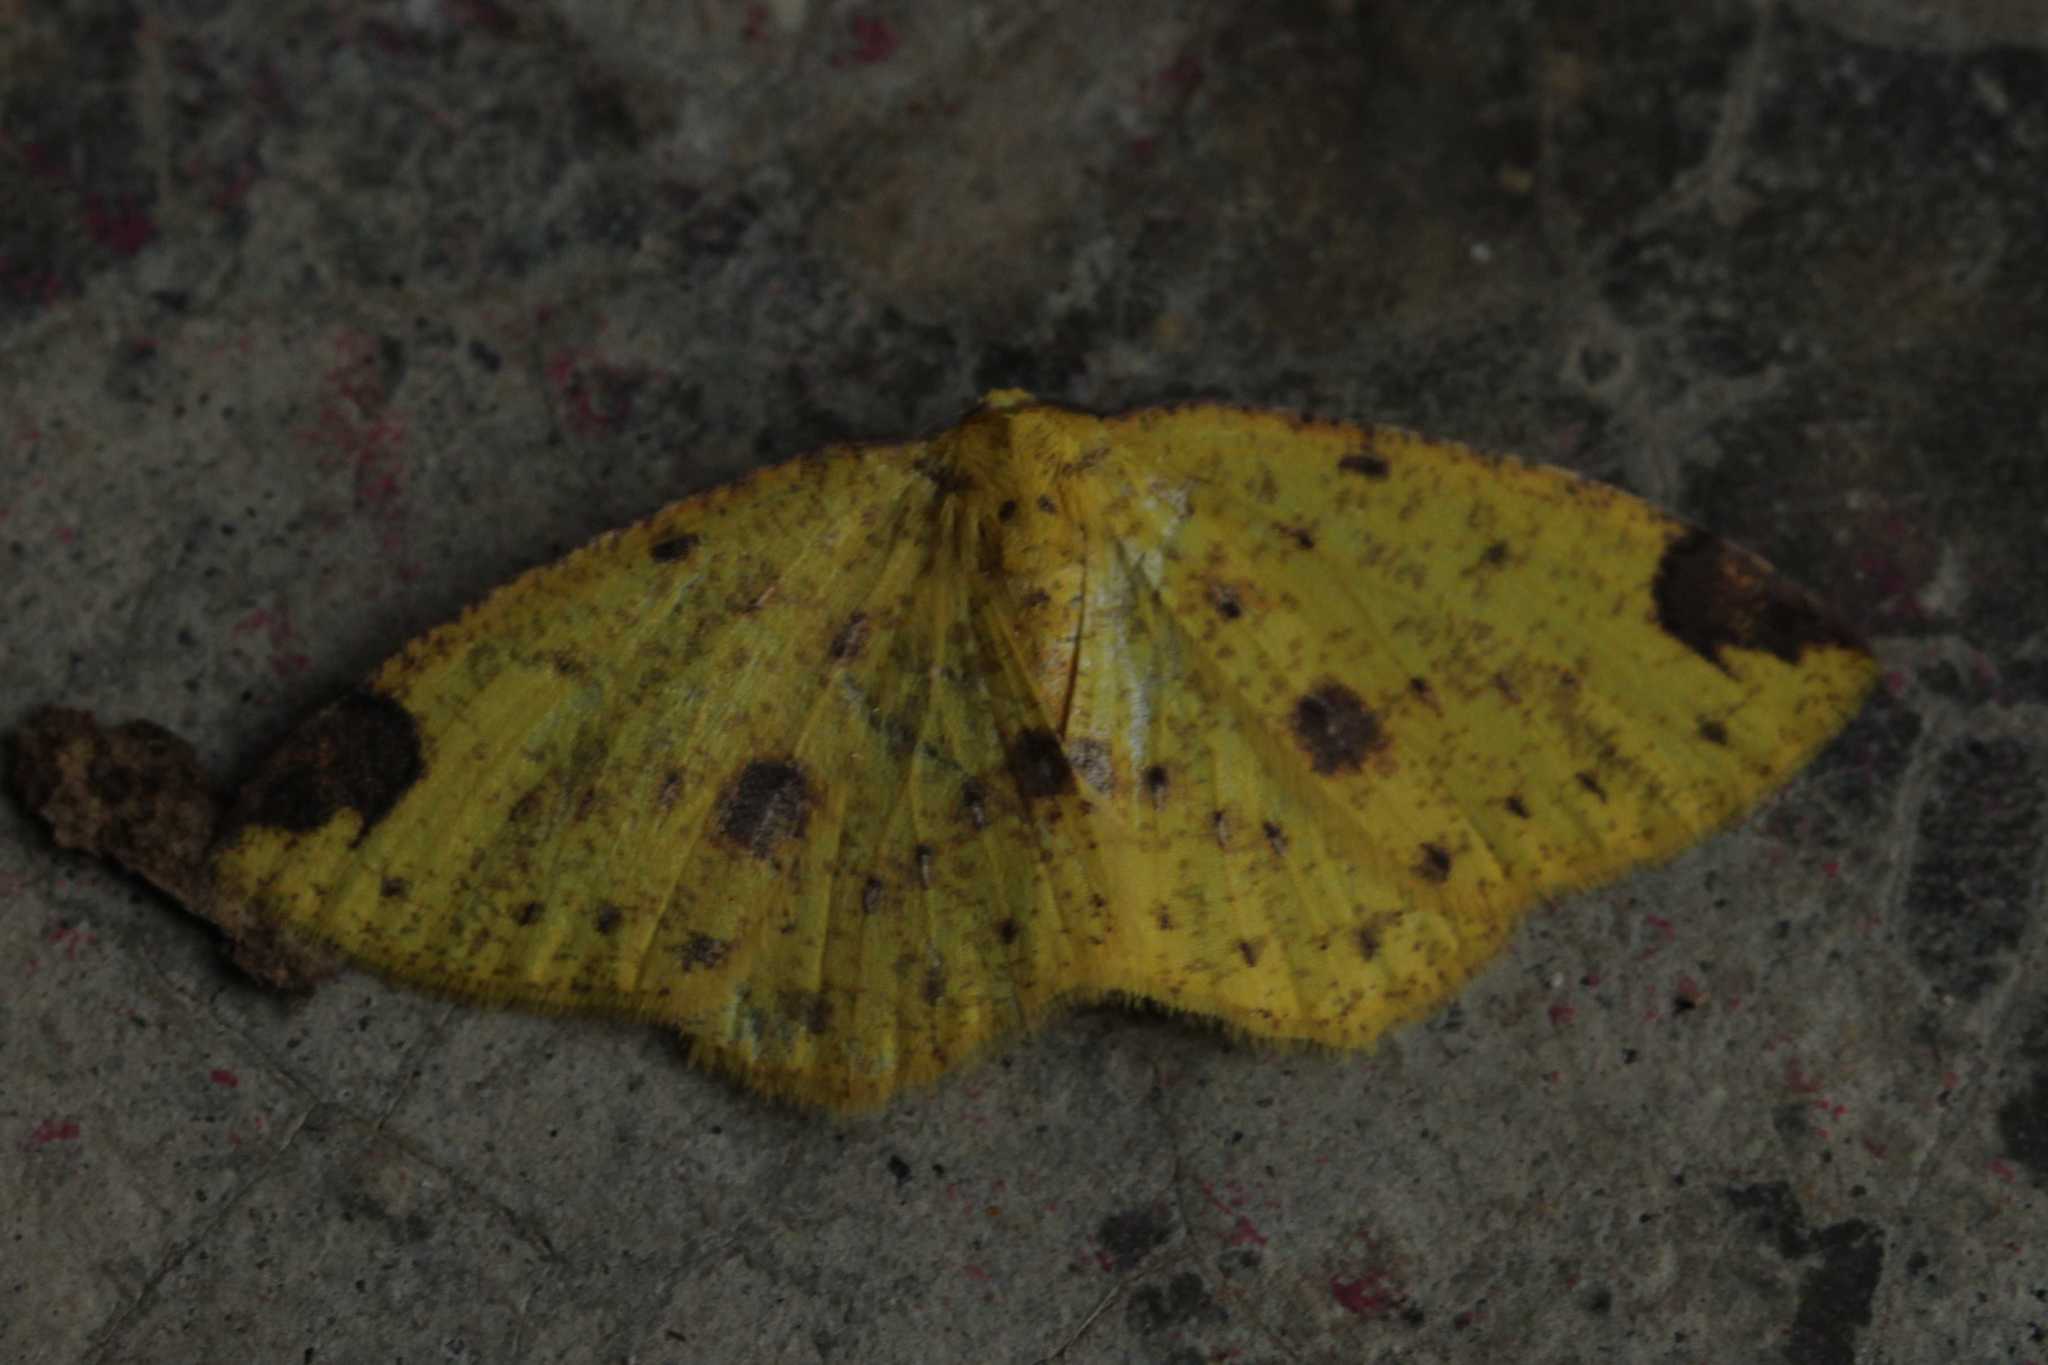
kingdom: Animalia
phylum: Arthropoda
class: Insecta
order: Lepidoptera
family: Geometridae
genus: Periclina
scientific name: Periclina apricaria
